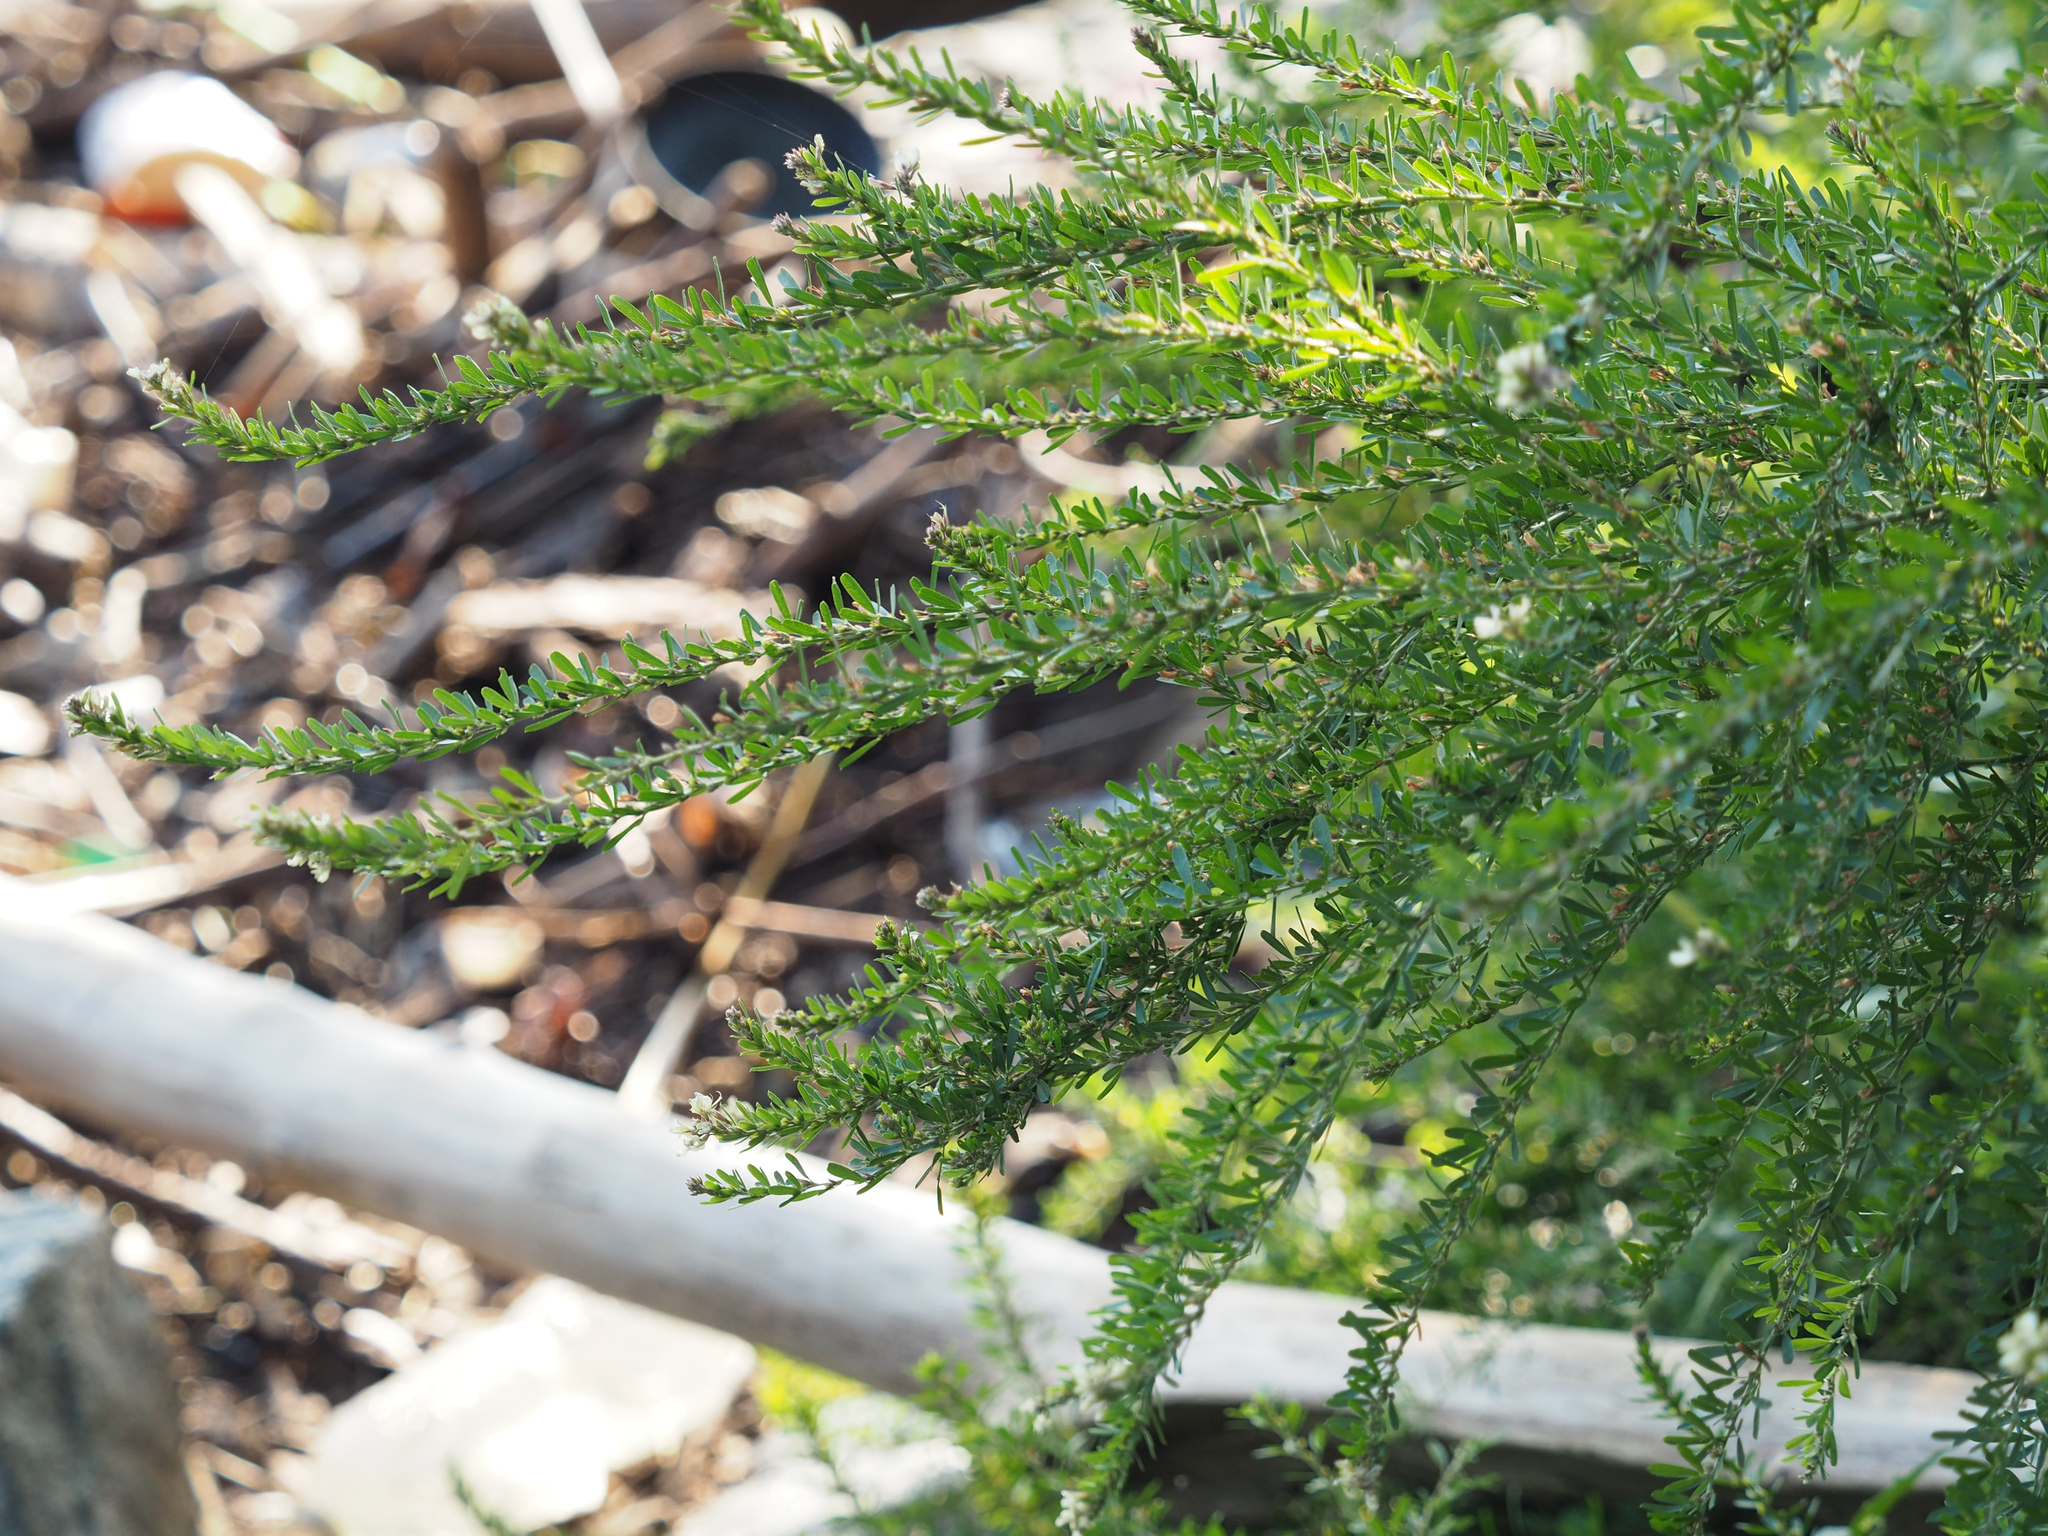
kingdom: Plantae
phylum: Tracheophyta
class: Magnoliopsida
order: Fabales
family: Fabaceae
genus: Lespedeza
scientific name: Lespedeza cuneata
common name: Chinese bush-clover
